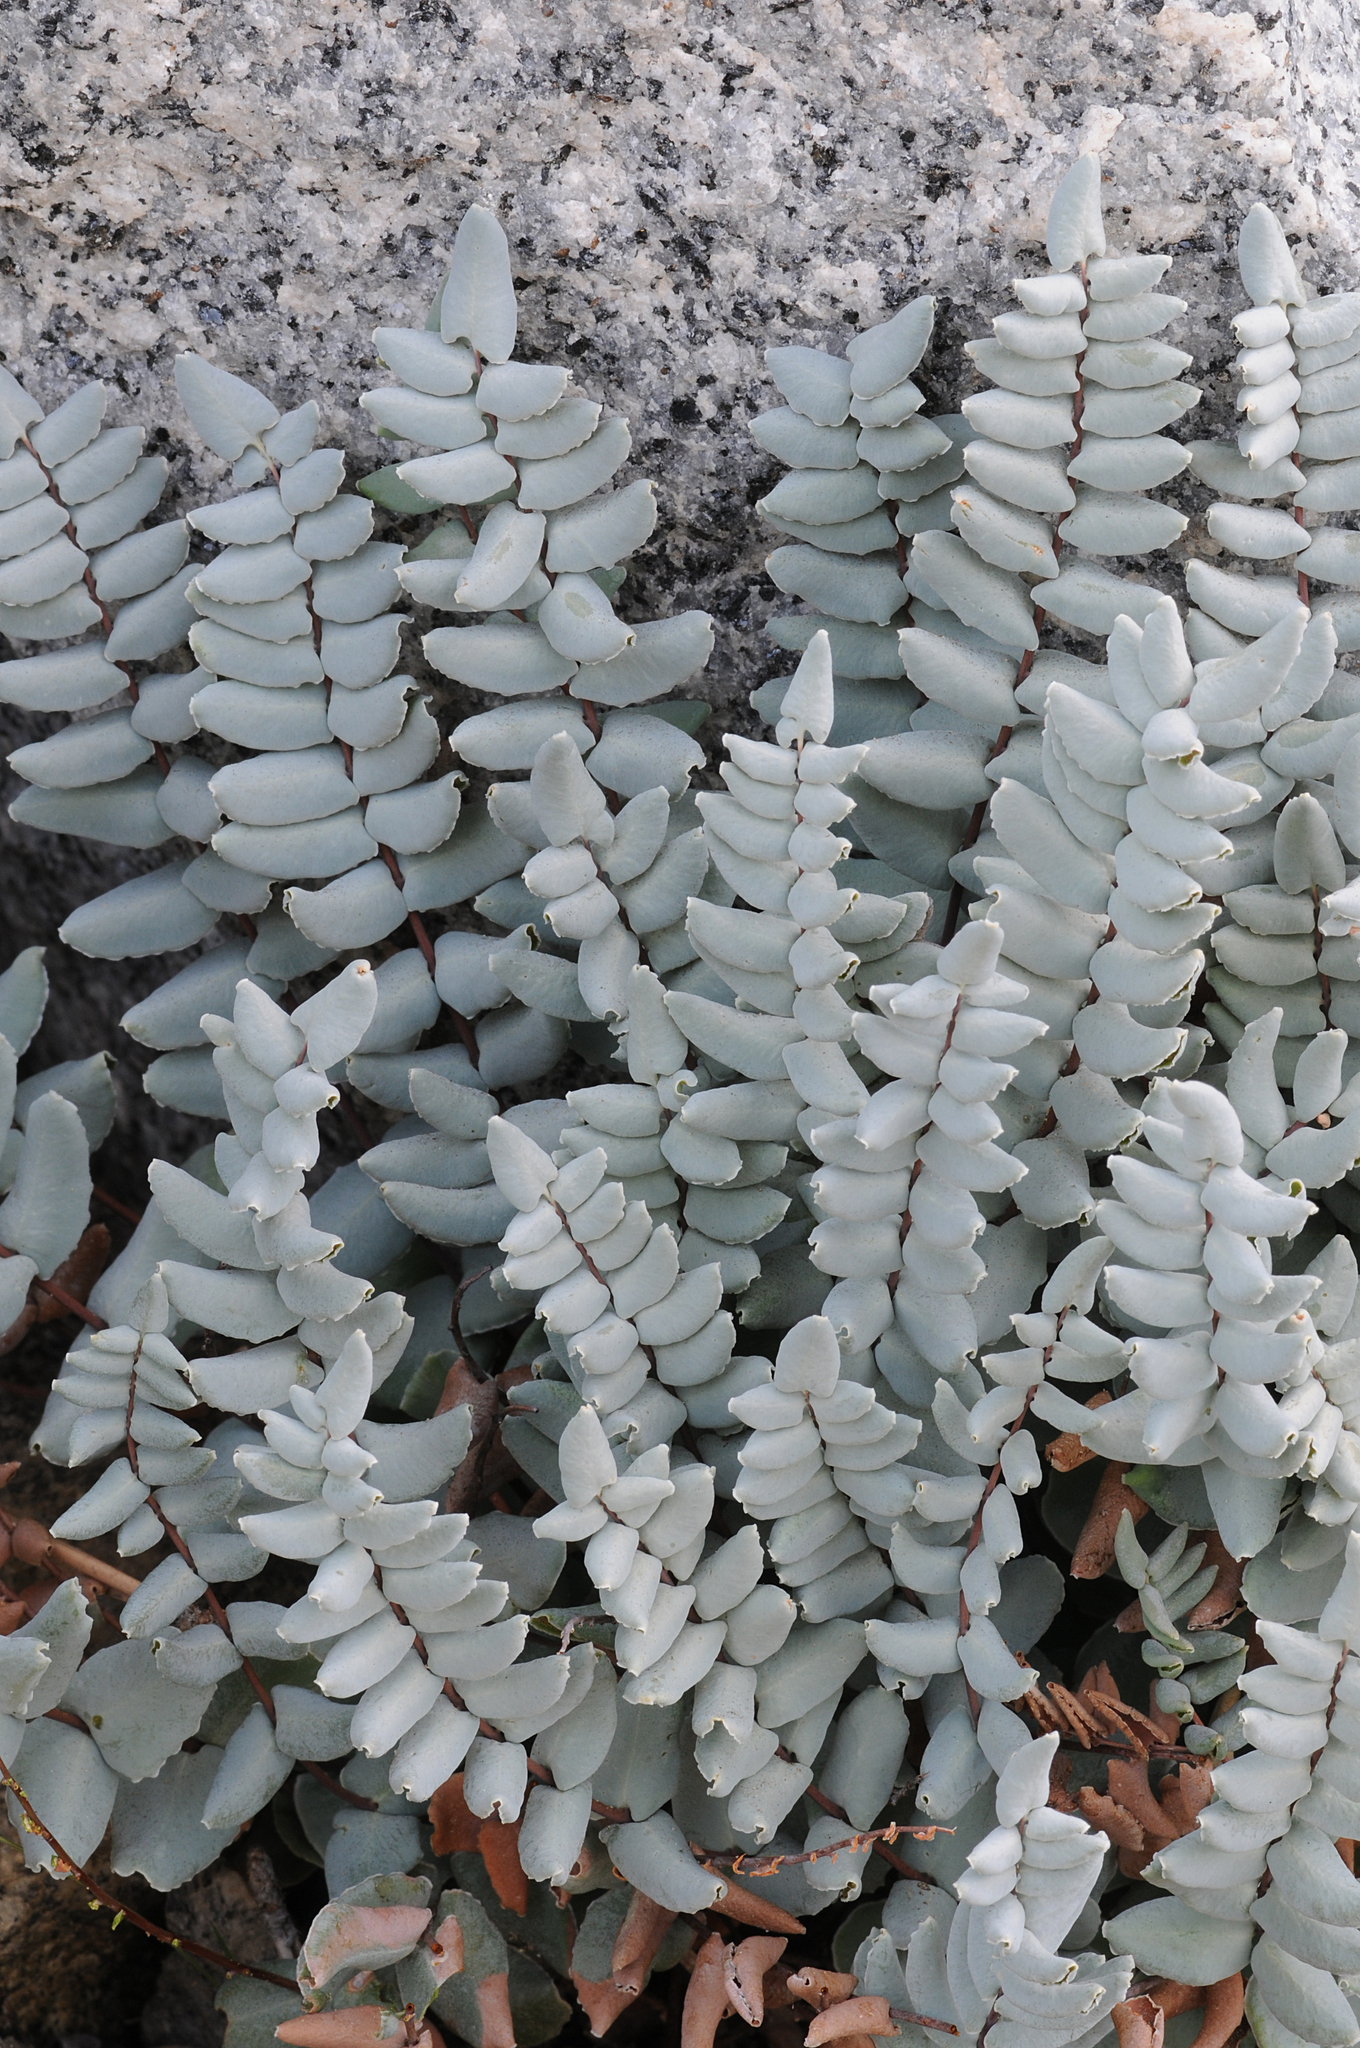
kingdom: Plantae
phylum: Tracheophyta
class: Polypodiopsida
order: Polypodiales
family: Pteridaceae
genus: Pellaea
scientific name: Pellaea bridgesii
